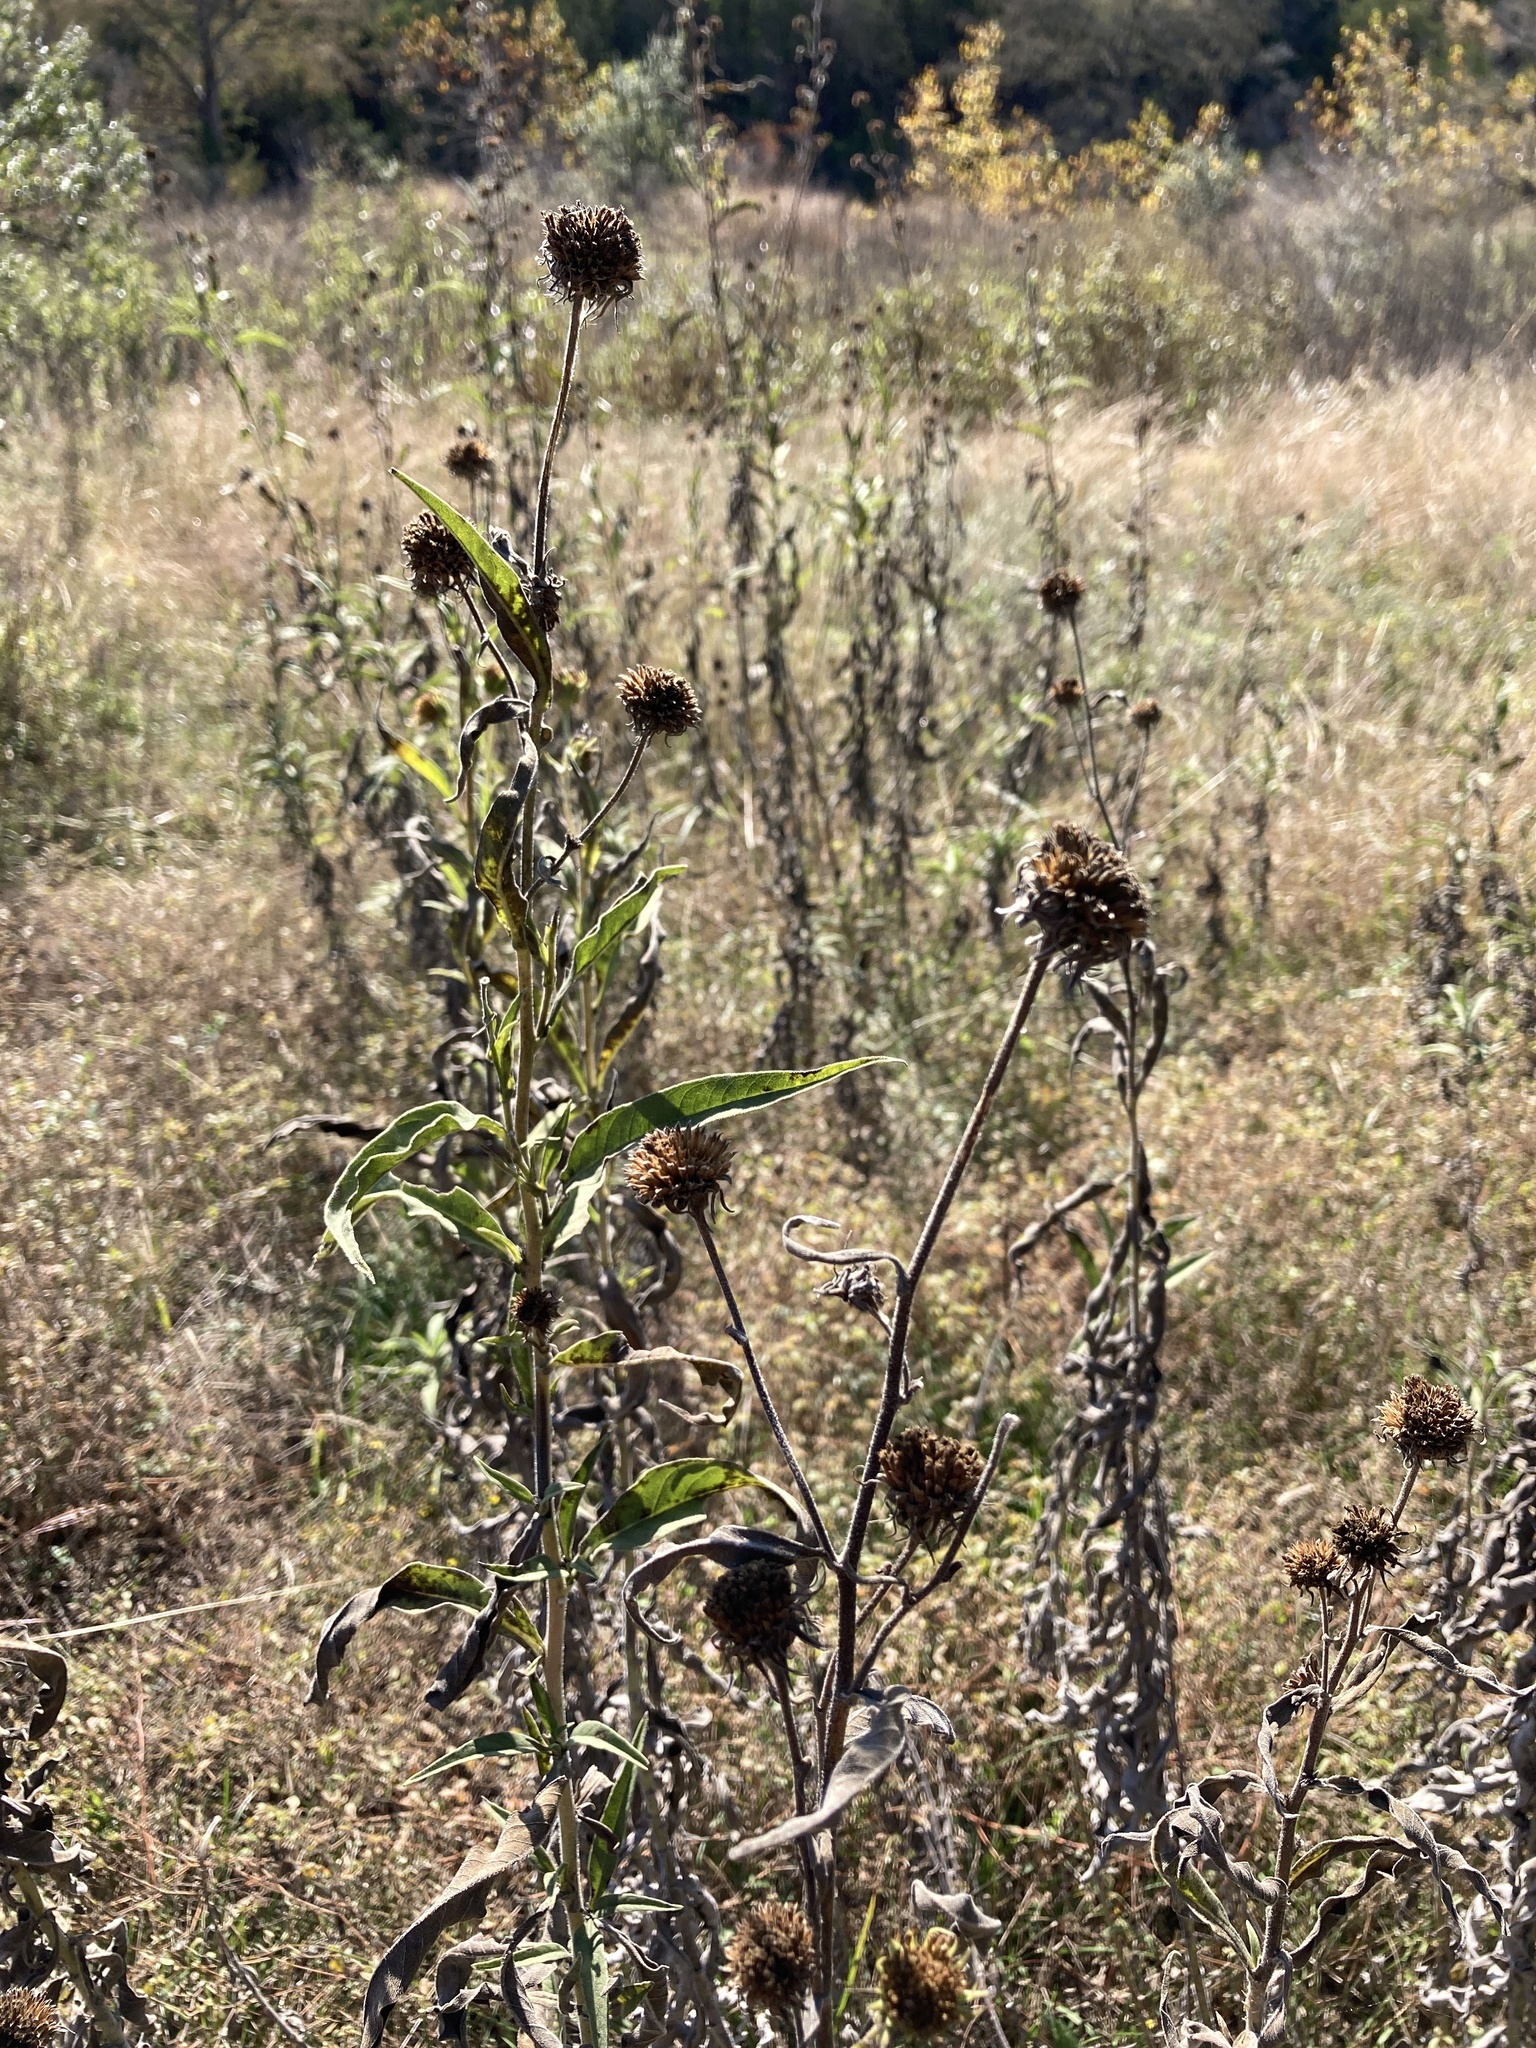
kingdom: Plantae
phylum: Tracheophyta
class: Magnoliopsida
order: Asterales
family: Asteraceae
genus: Helianthus
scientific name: Helianthus maximiliani
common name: Maximilian's sunflower
